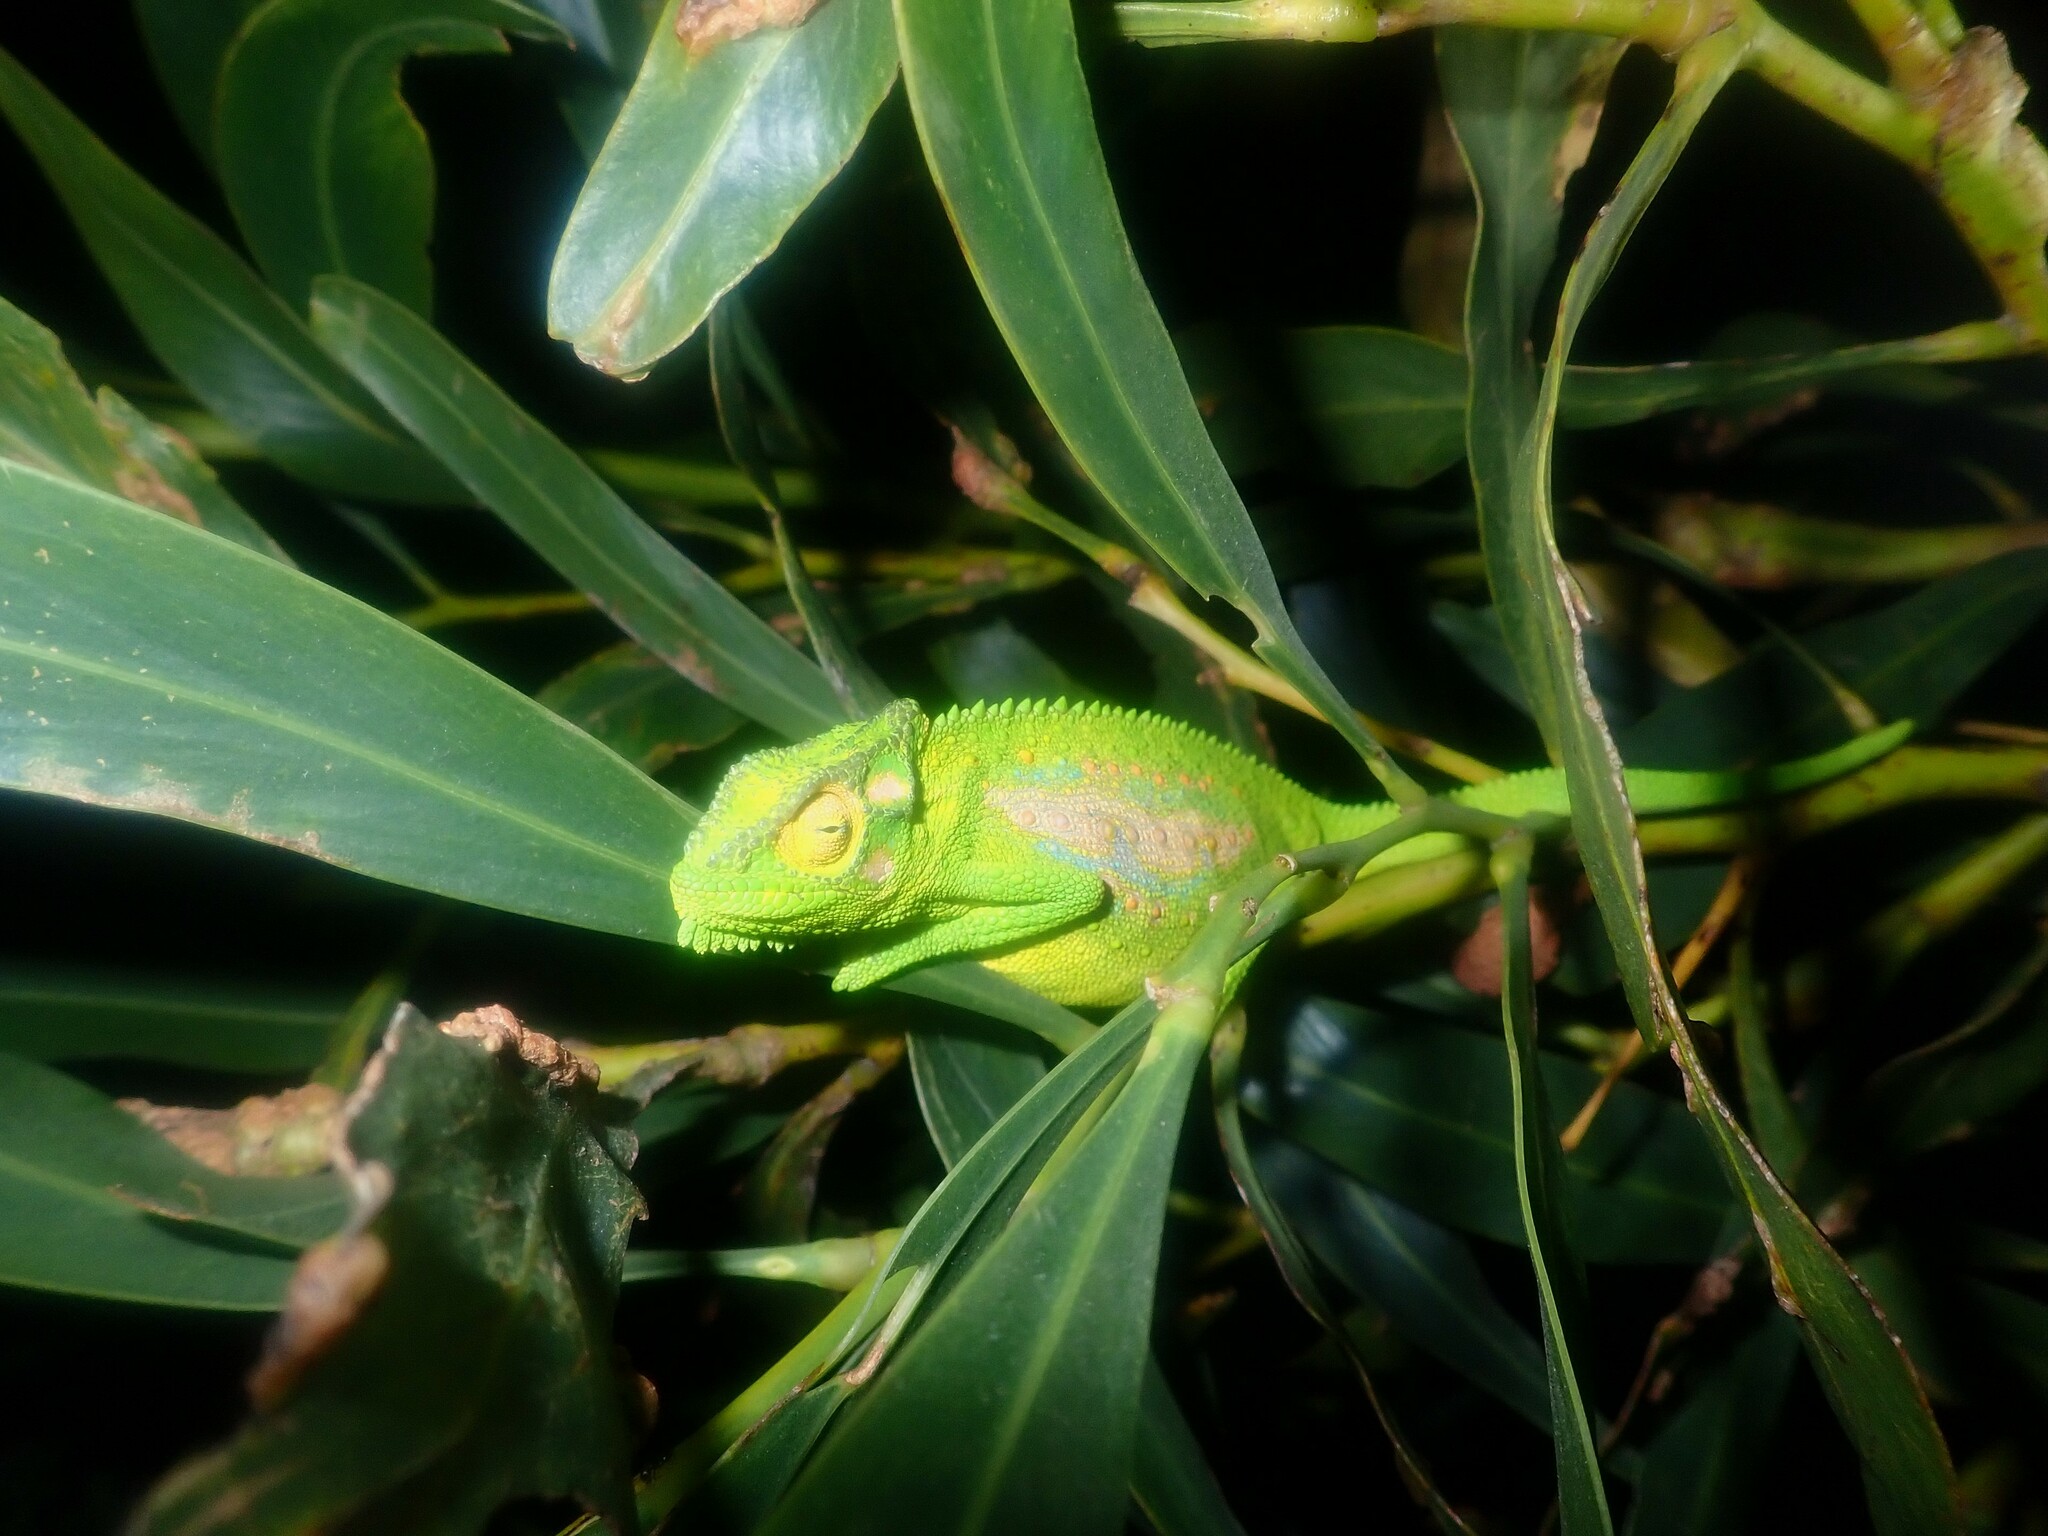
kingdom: Animalia
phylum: Chordata
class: Squamata
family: Chamaeleonidae
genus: Bradypodion
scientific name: Bradypodion pumilum
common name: Cape dwarf chameleon
